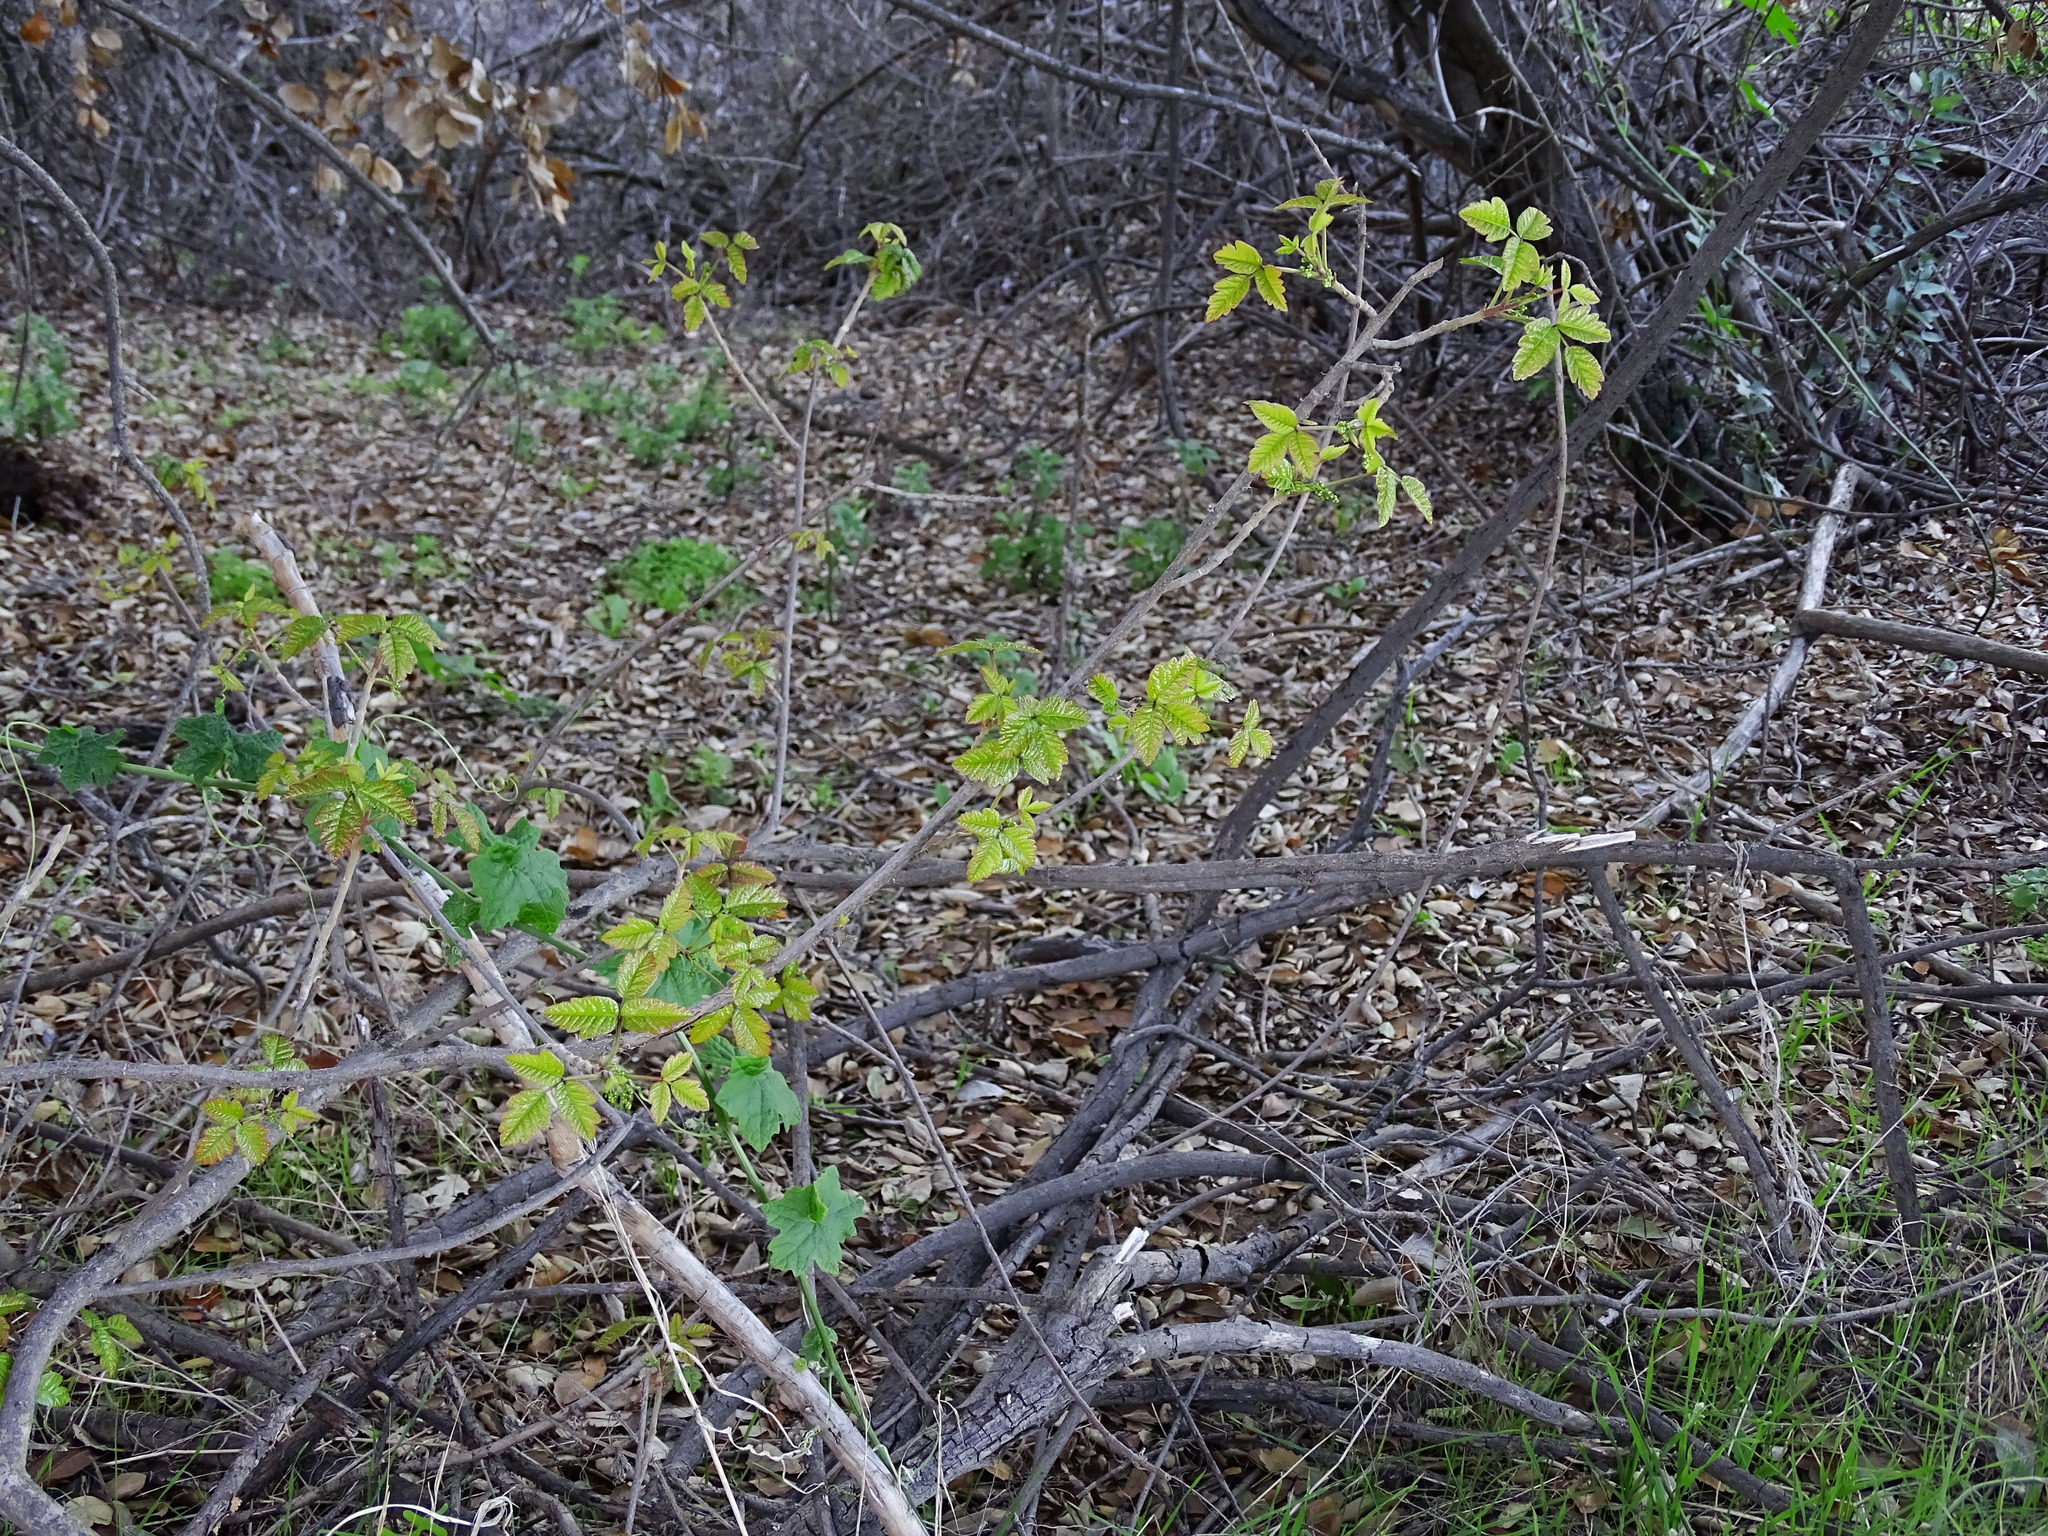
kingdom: Plantae
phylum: Tracheophyta
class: Magnoliopsida
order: Sapindales
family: Anacardiaceae
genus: Toxicodendron
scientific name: Toxicodendron diversilobum
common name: Pacific poison-oak
